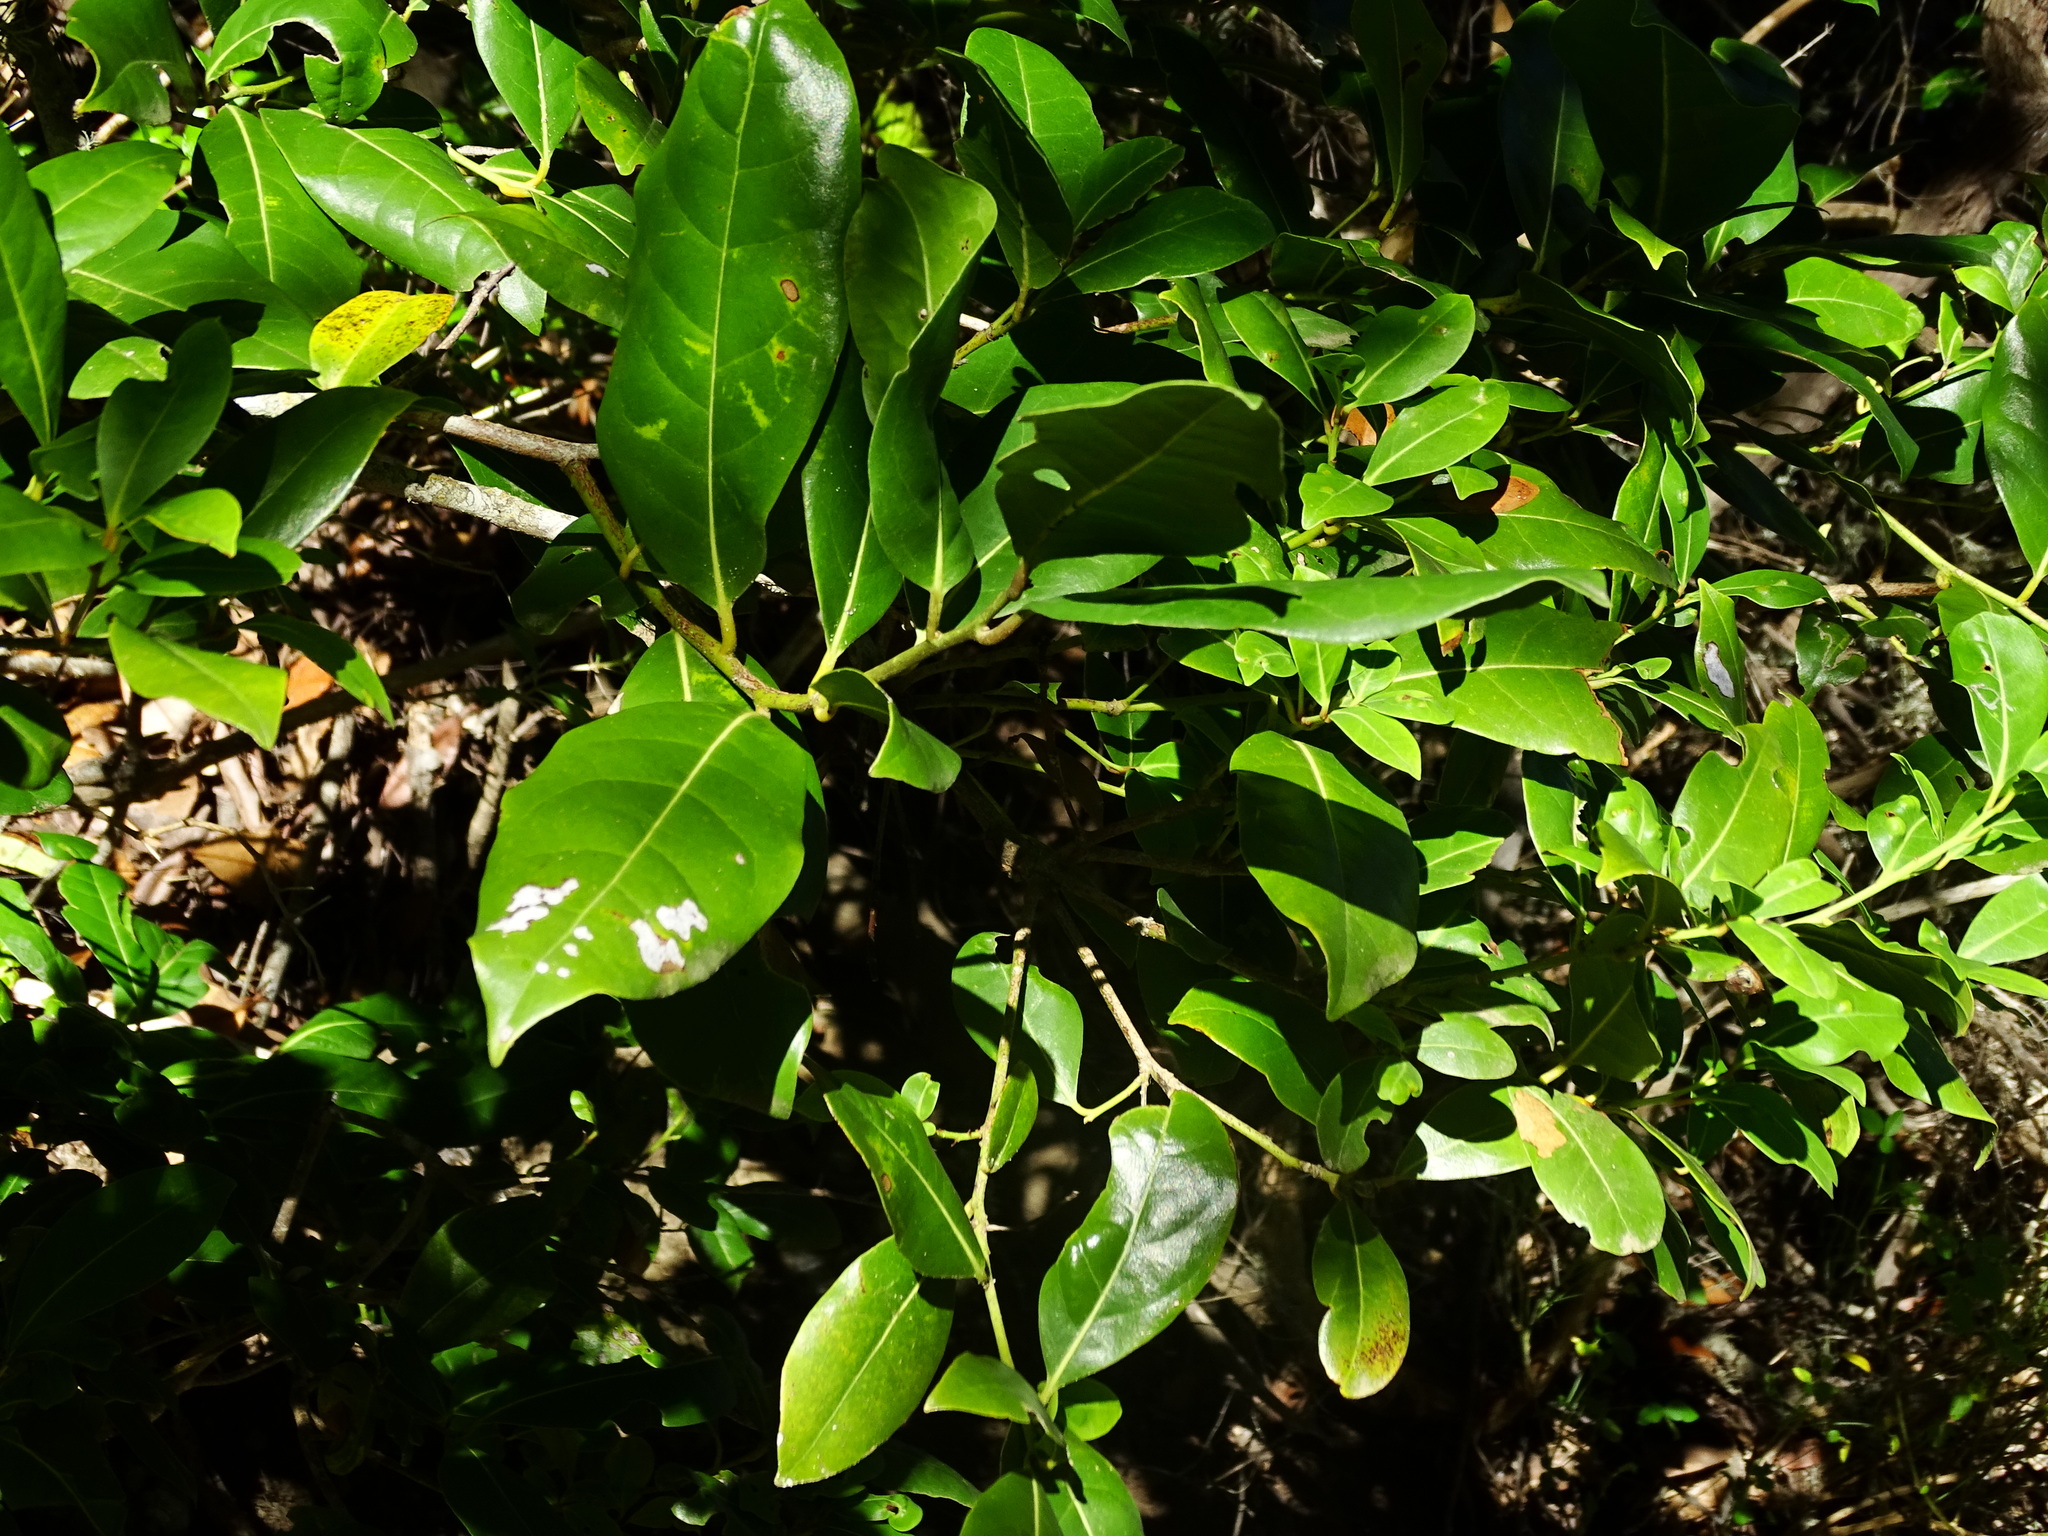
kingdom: Plantae
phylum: Tracheophyta
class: Magnoliopsida
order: Laurales
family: Lauraceae
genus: Apollonias
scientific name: Apollonias barbujana
